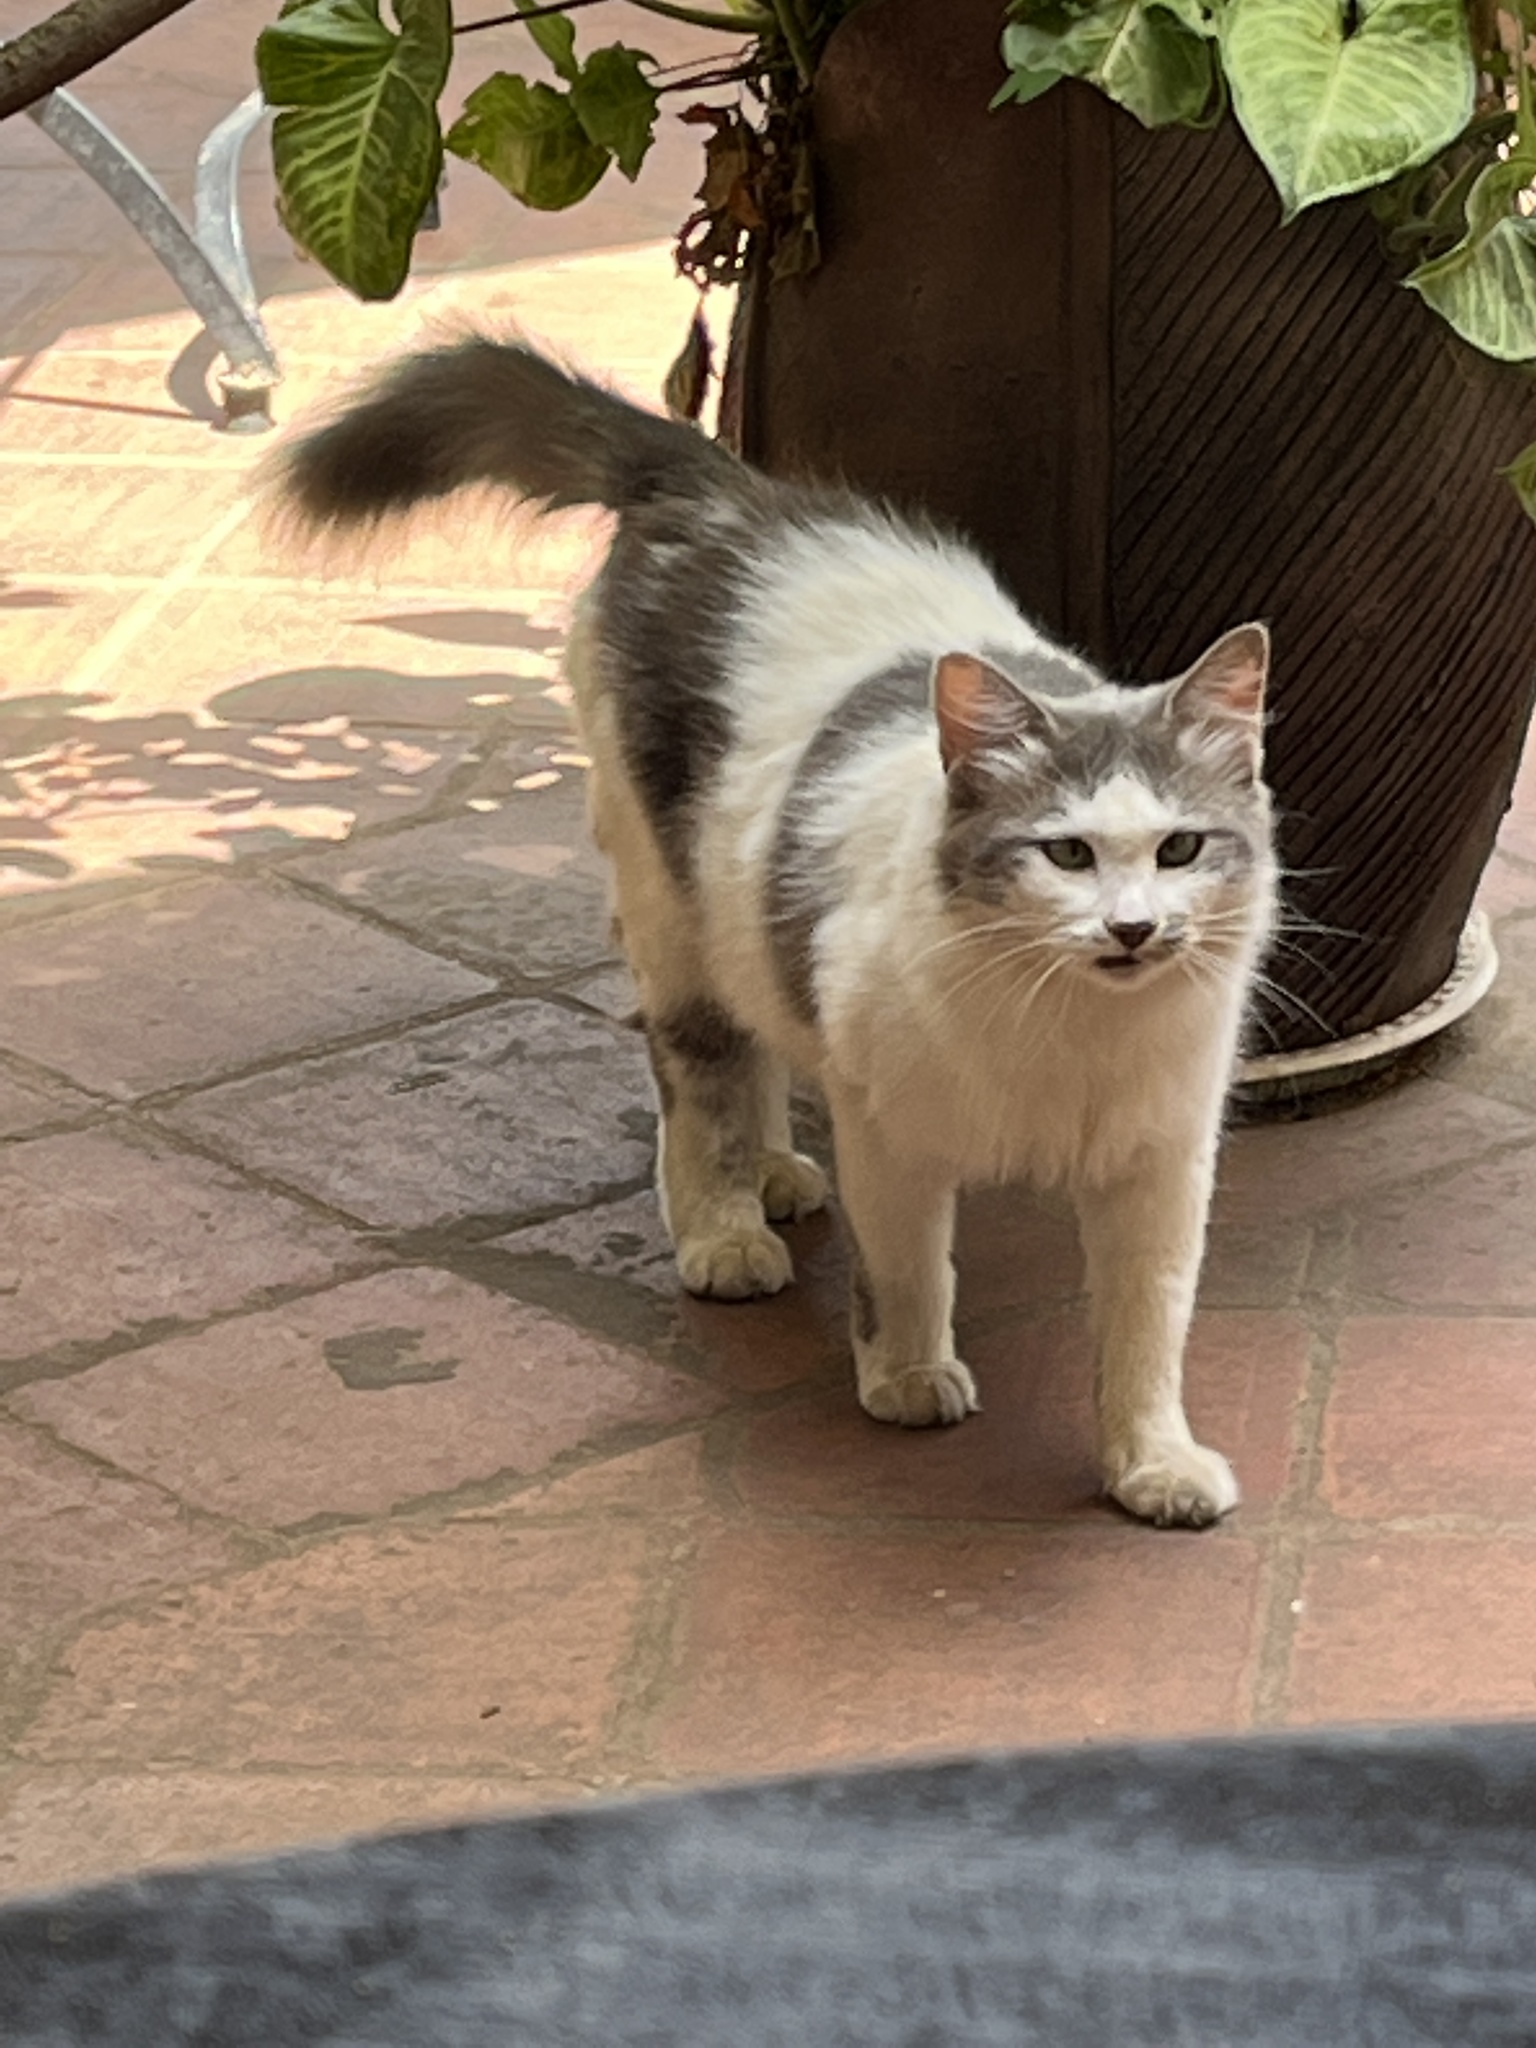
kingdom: Animalia
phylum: Chordata
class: Mammalia
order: Carnivora
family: Felidae
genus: Felis
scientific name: Felis catus
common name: Domestic cat
